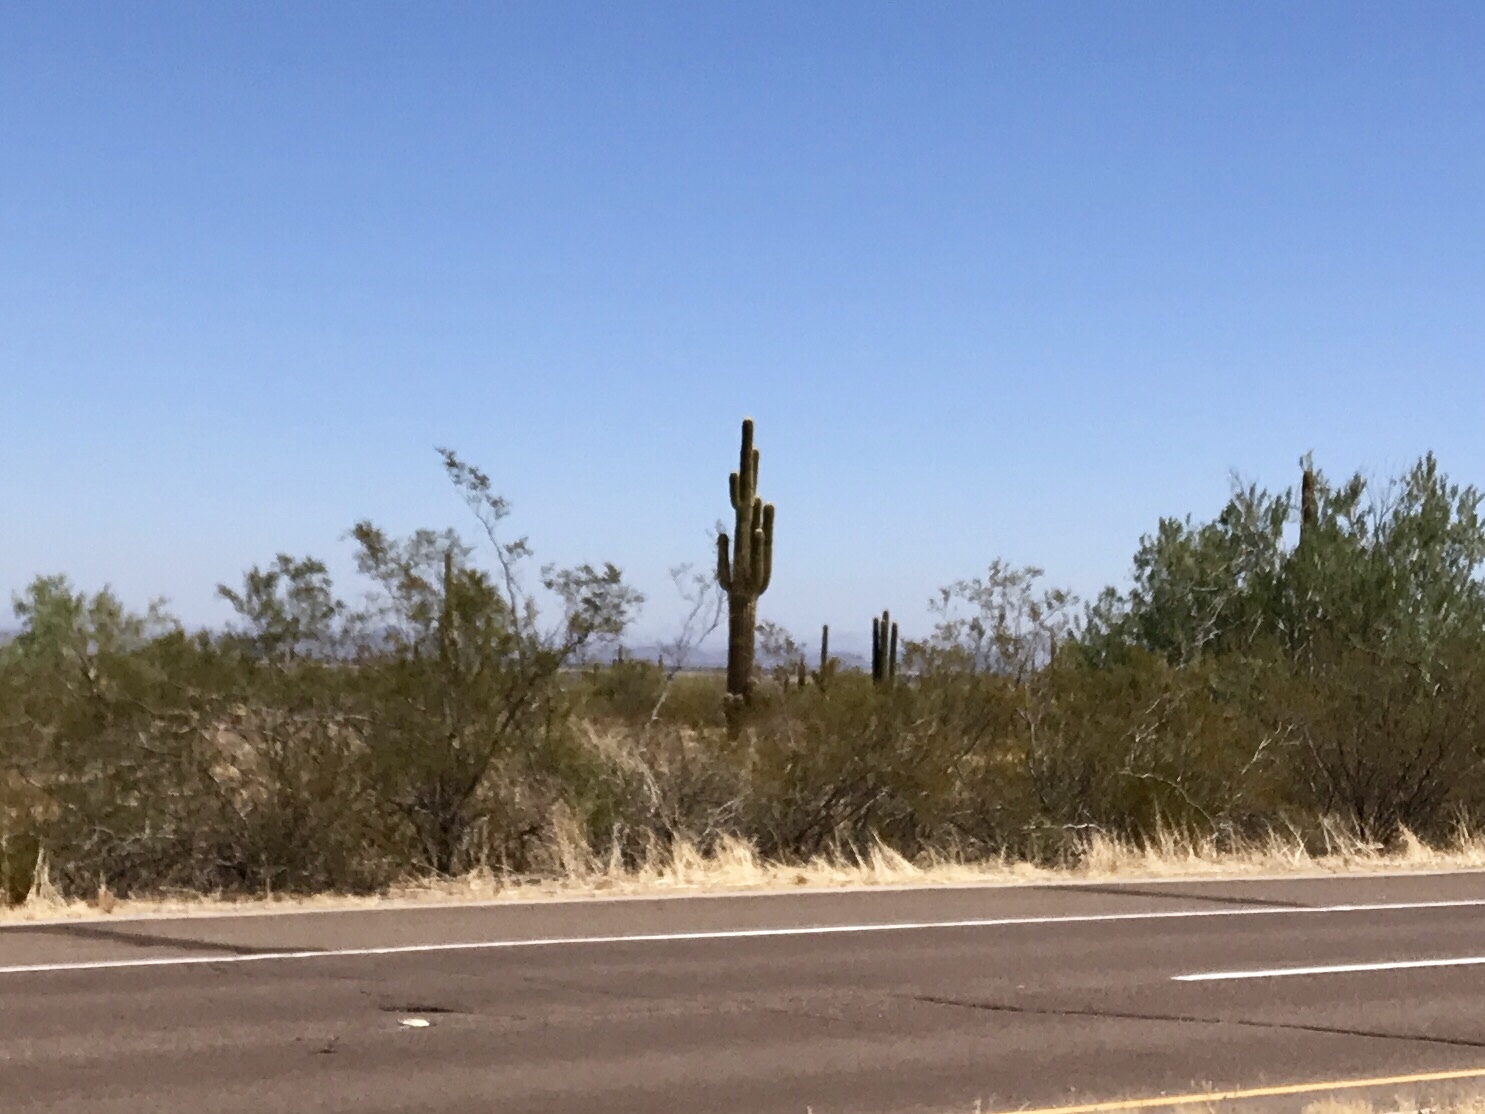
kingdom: Plantae
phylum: Tracheophyta
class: Magnoliopsida
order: Caryophyllales
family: Cactaceae
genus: Carnegiea
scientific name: Carnegiea gigantea
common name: Saguaro
